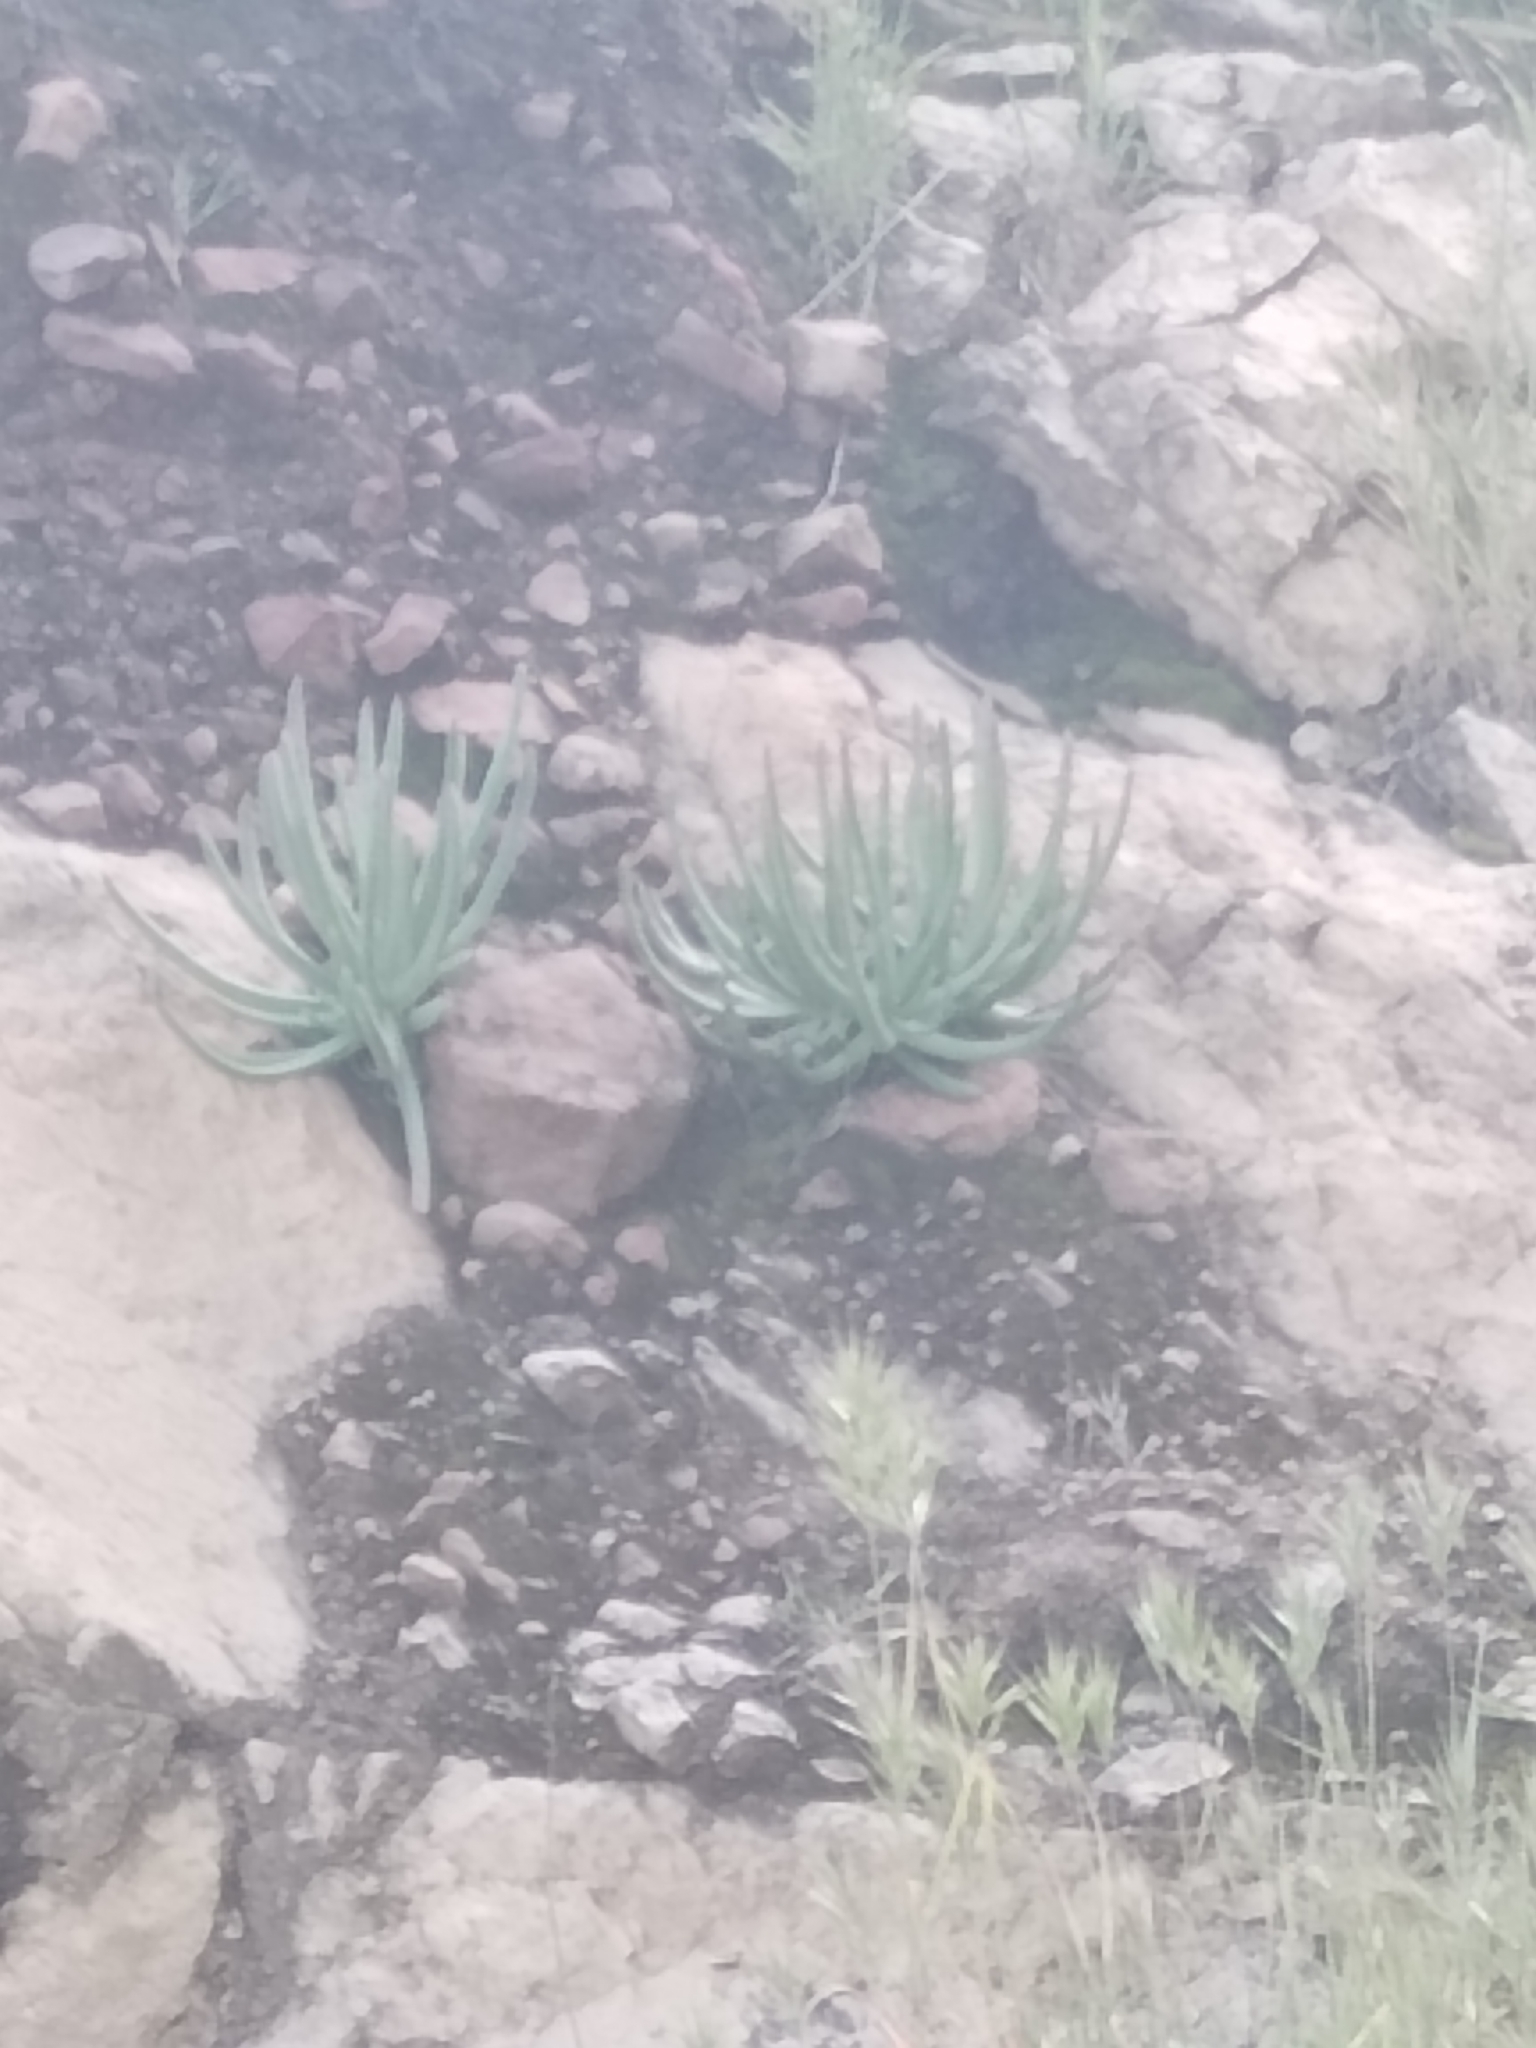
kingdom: Plantae
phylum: Tracheophyta
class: Magnoliopsida
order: Saxifragales
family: Crassulaceae
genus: Dudleya
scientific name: Dudleya edulis
